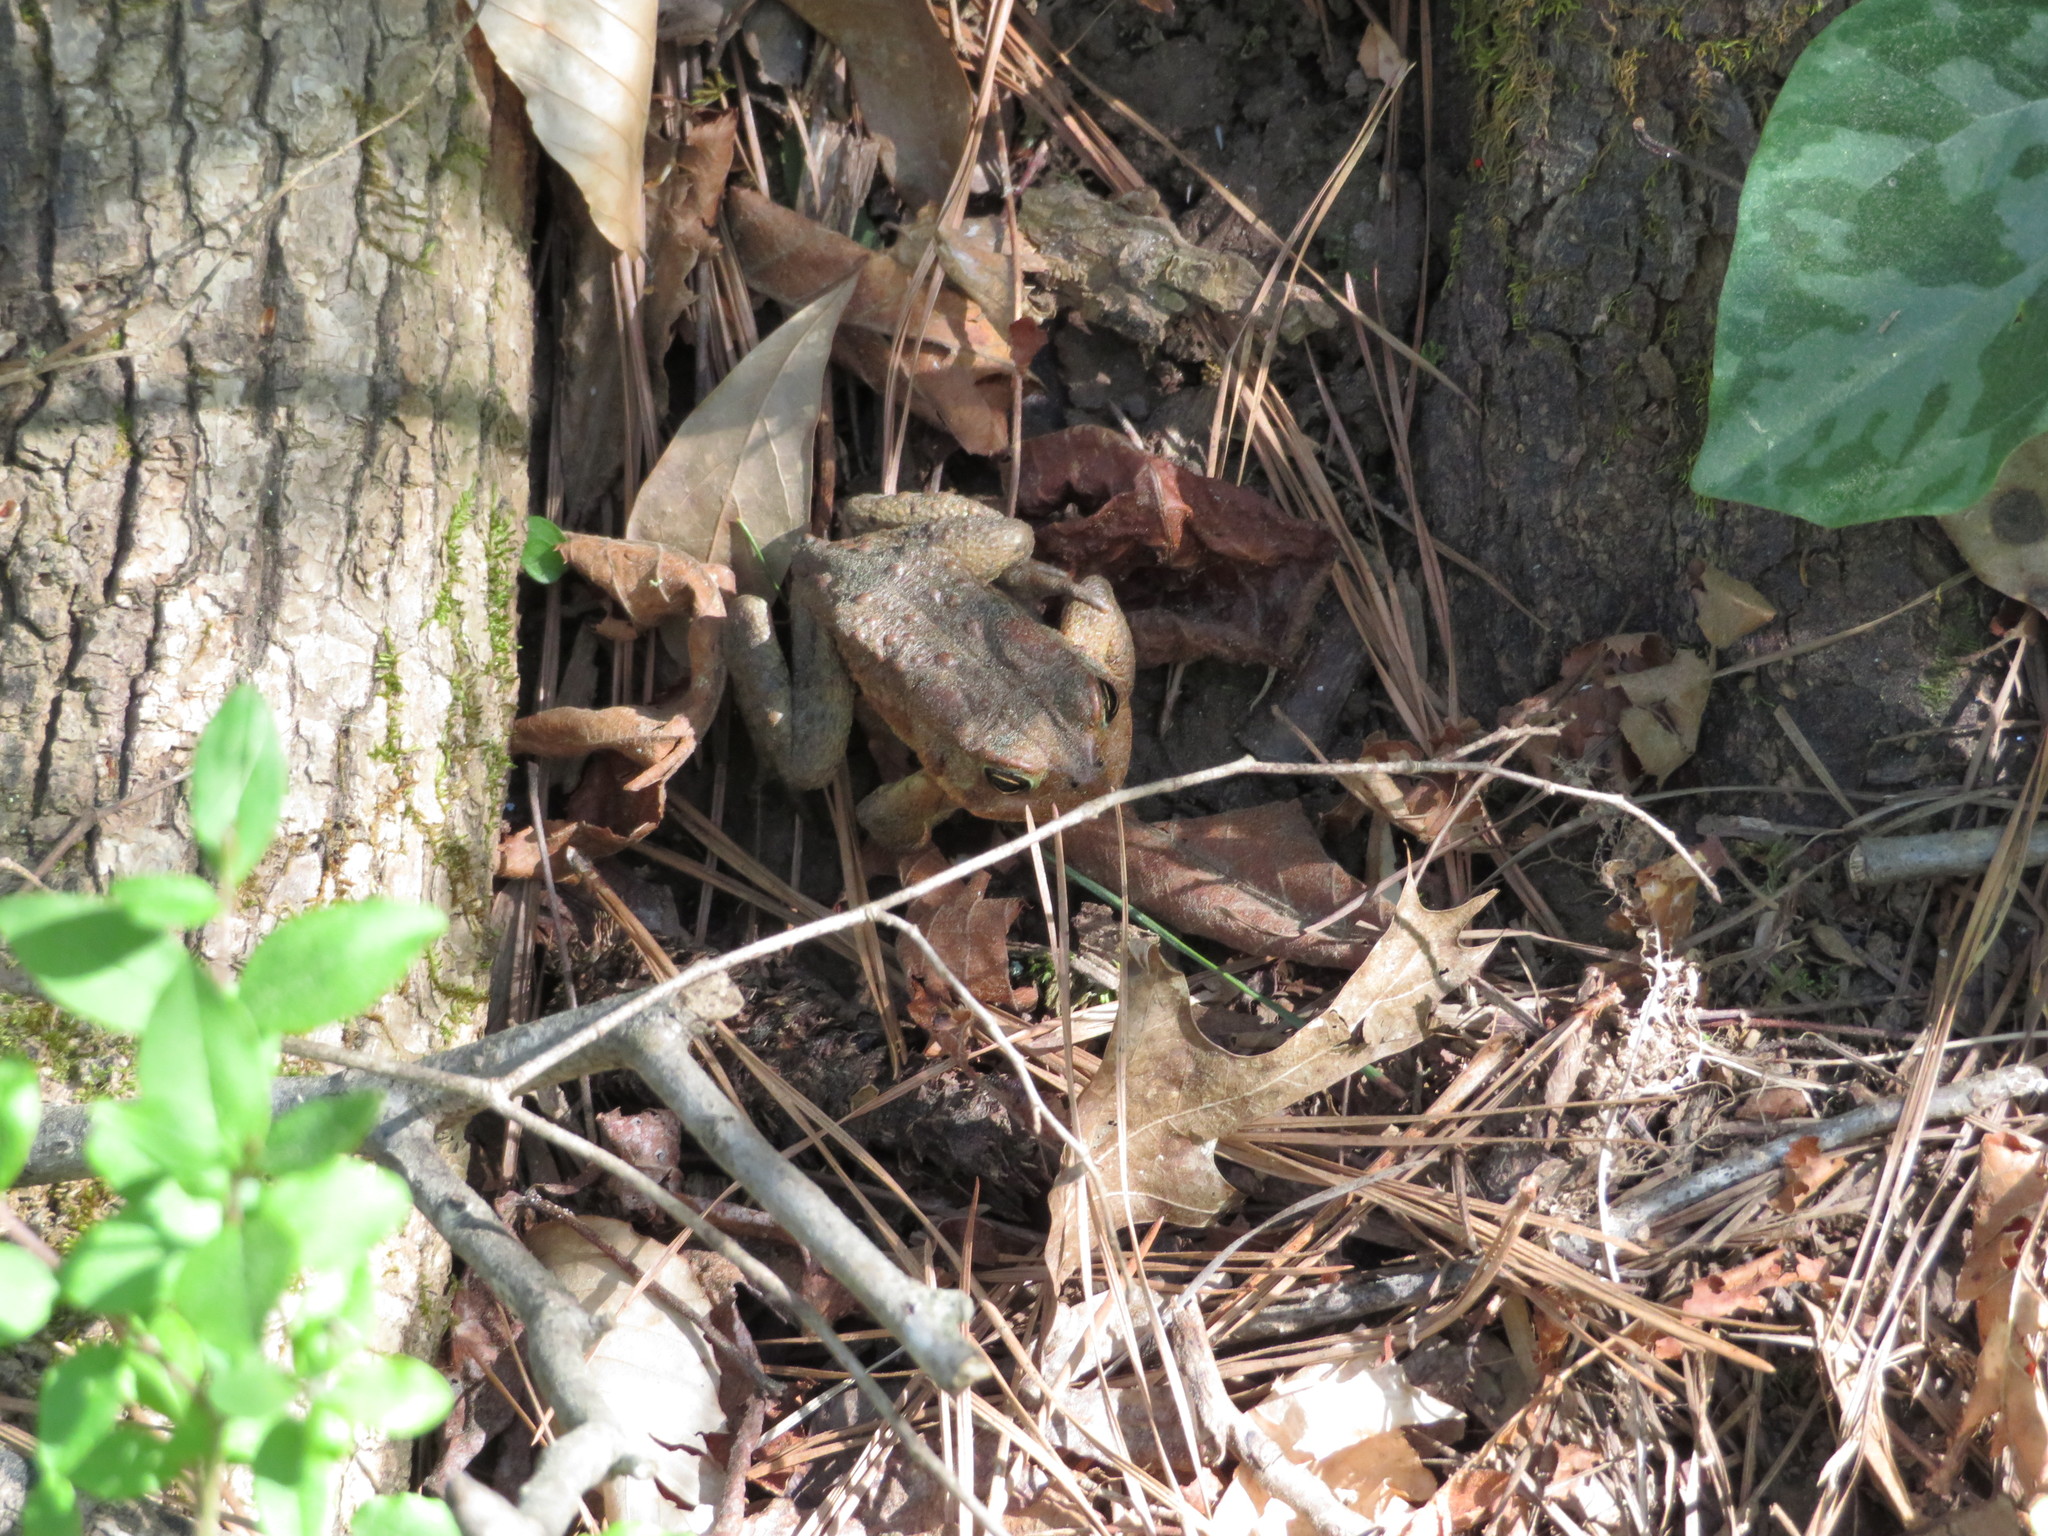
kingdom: Animalia
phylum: Chordata
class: Amphibia
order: Anura
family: Bufonidae
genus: Anaxyrus
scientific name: Anaxyrus americanus
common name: American toad
